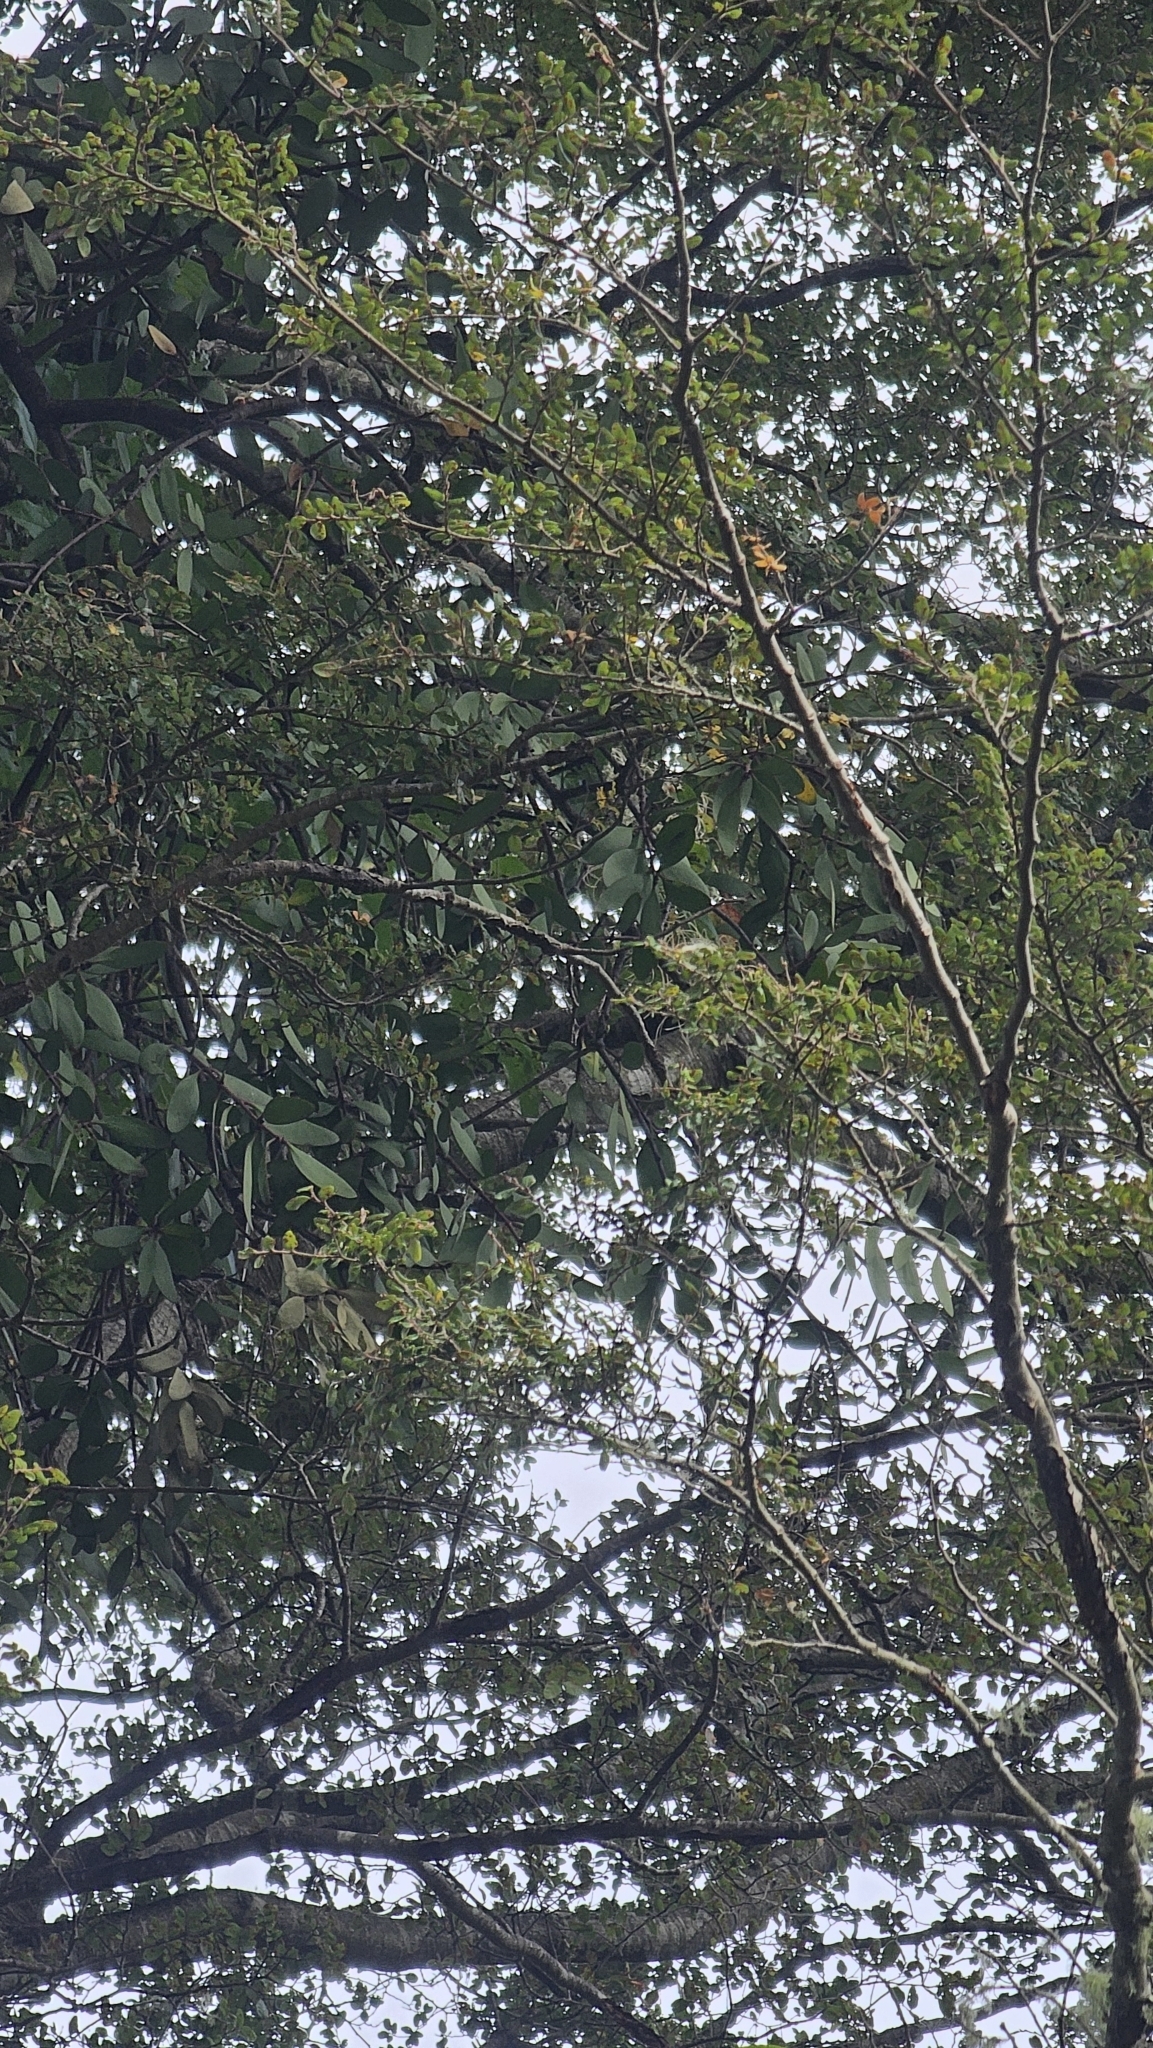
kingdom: Plantae
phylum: Tracheophyta
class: Magnoliopsida
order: Santalales
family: Loranthaceae
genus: Alepis
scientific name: Alepis flavida
